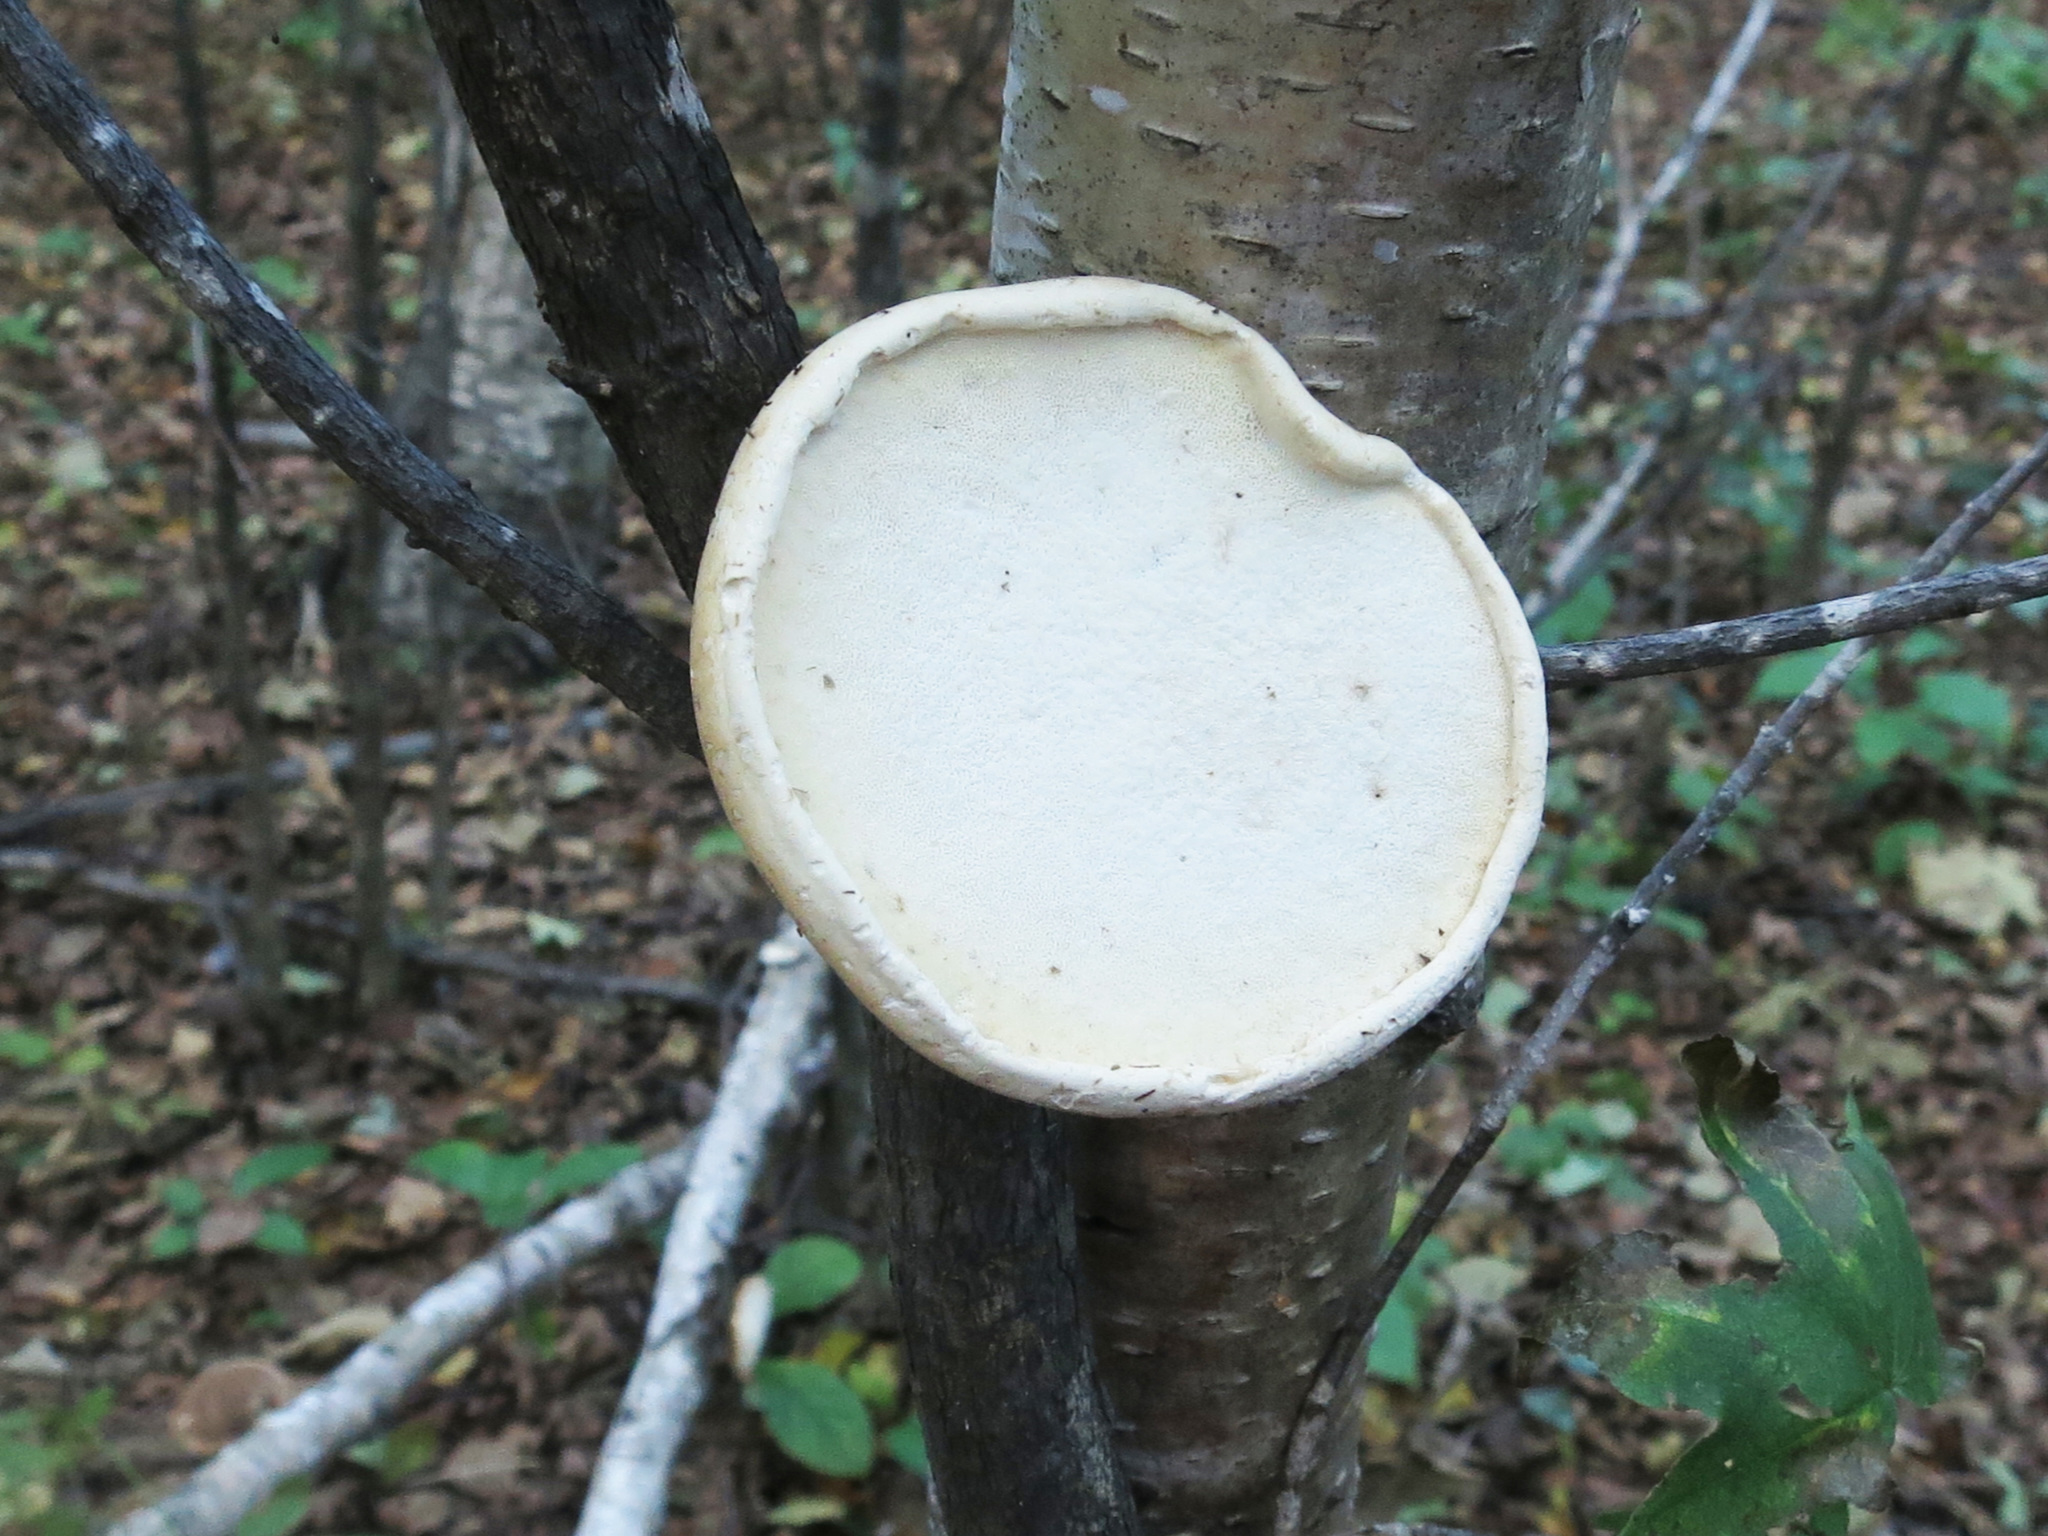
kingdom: Fungi
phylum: Basidiomycota
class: Agaricomycetes
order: Polyporales
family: Fomitopsidaceae
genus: Fomitopsis
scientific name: Fomitopsis betulina
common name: Birch polypore
